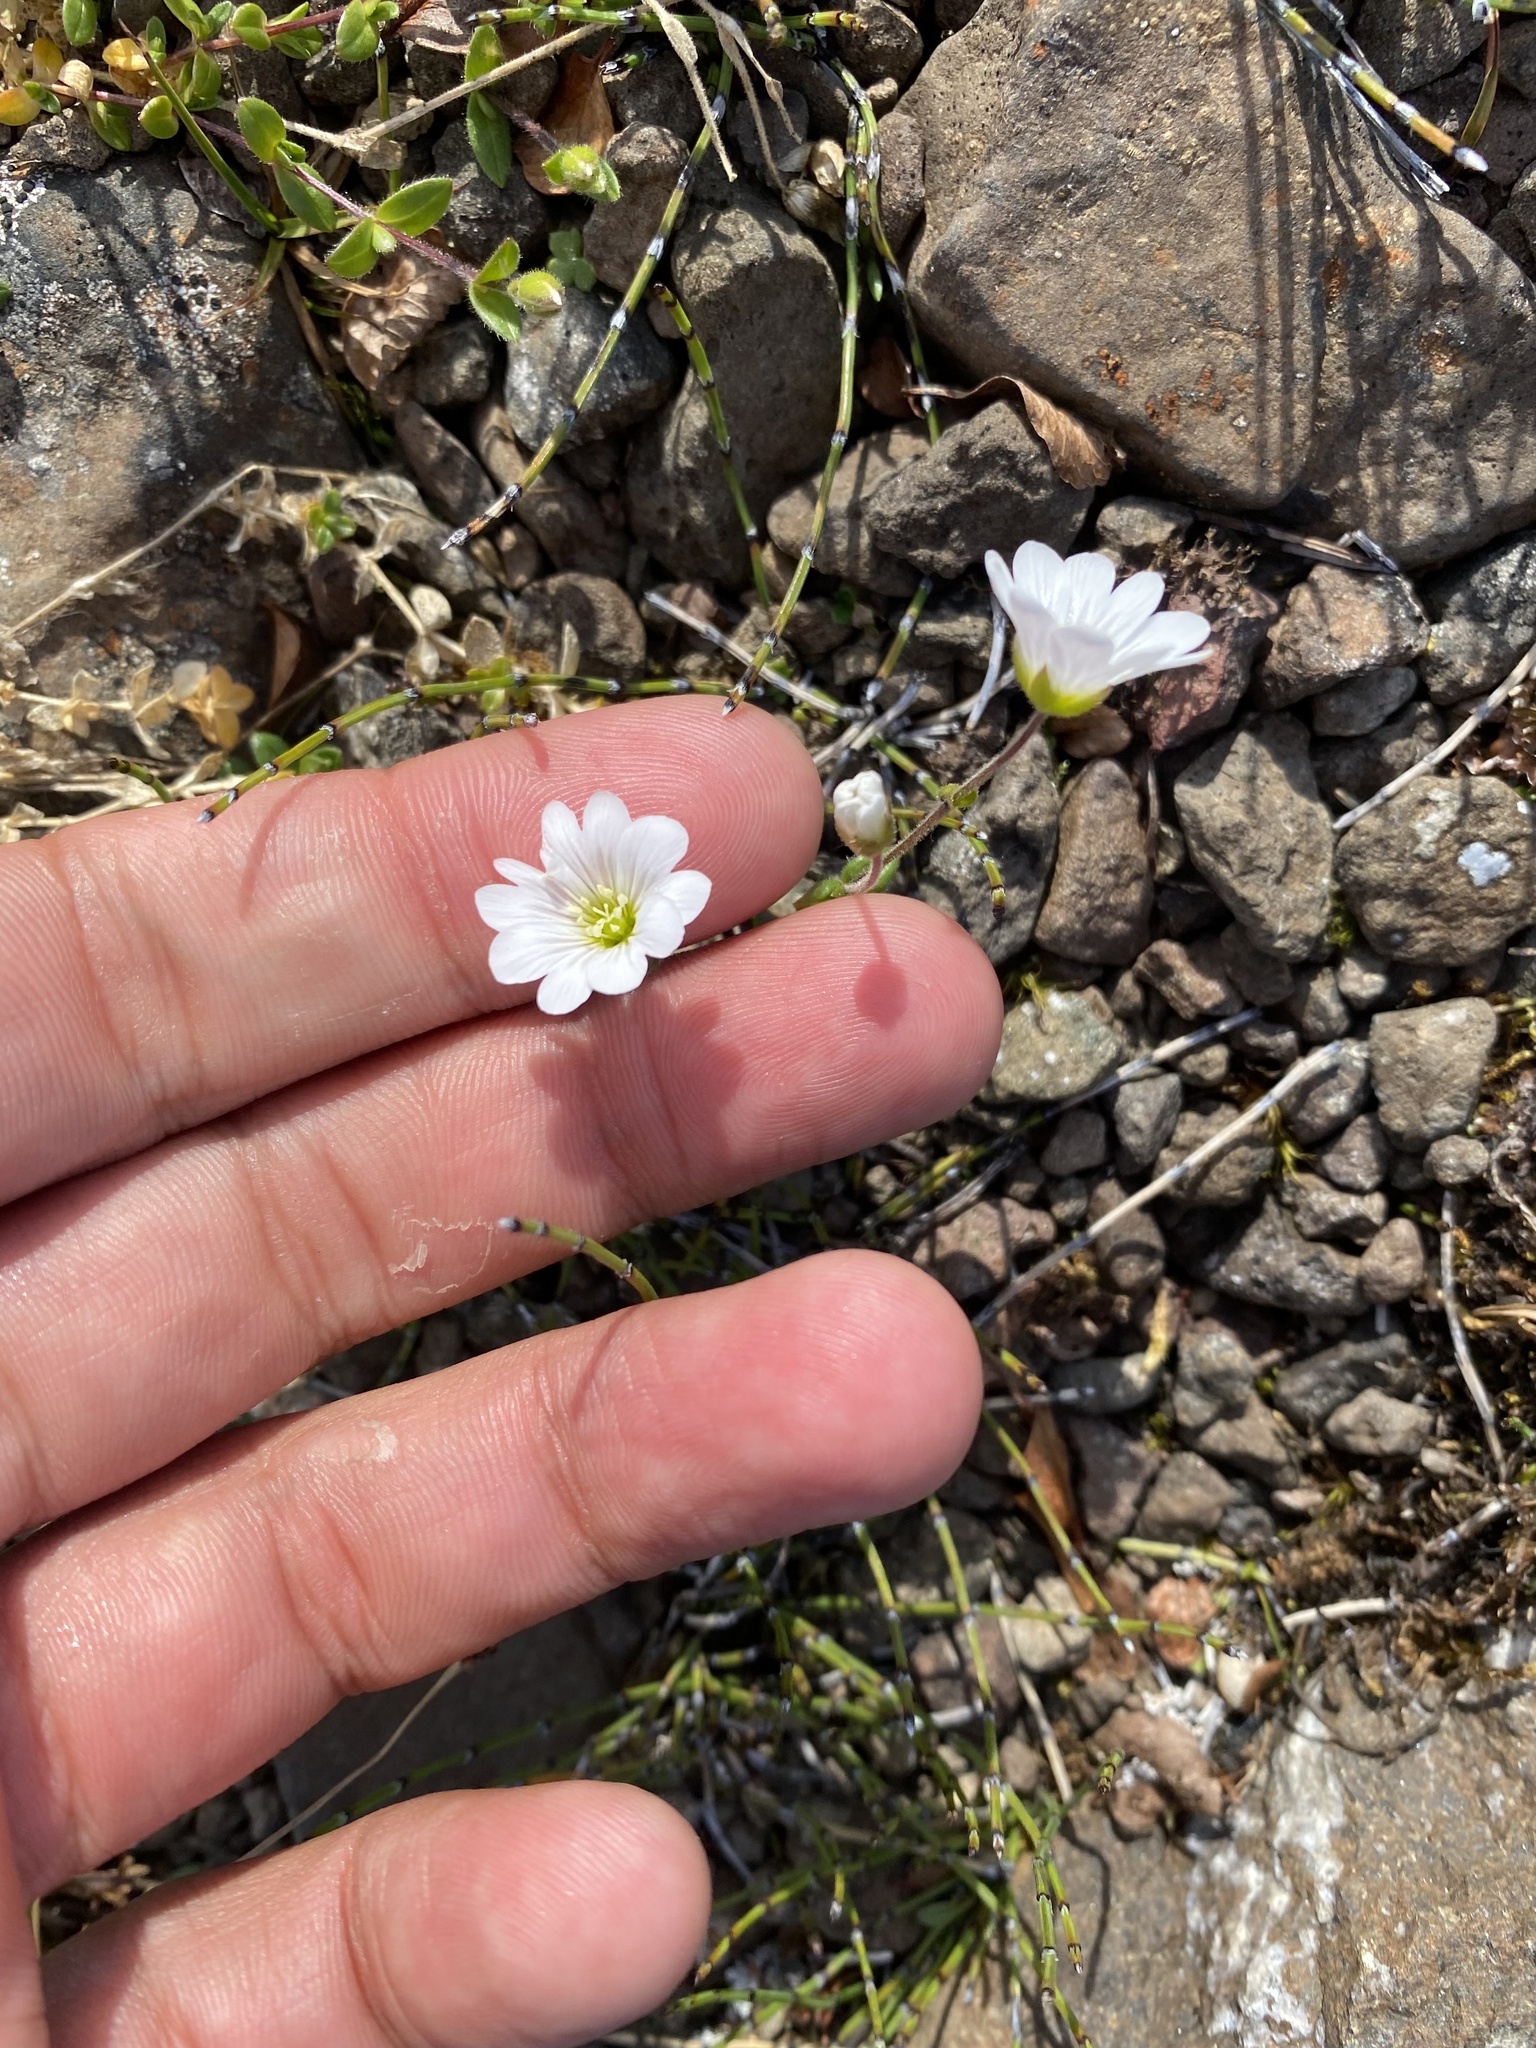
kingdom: Plantae
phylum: Tracheophyta
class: Magnoliopsida
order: Caryophyllales
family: Caryophyllaceae
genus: Cerastium
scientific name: Cerastium regelii
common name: Regel's chickweed
